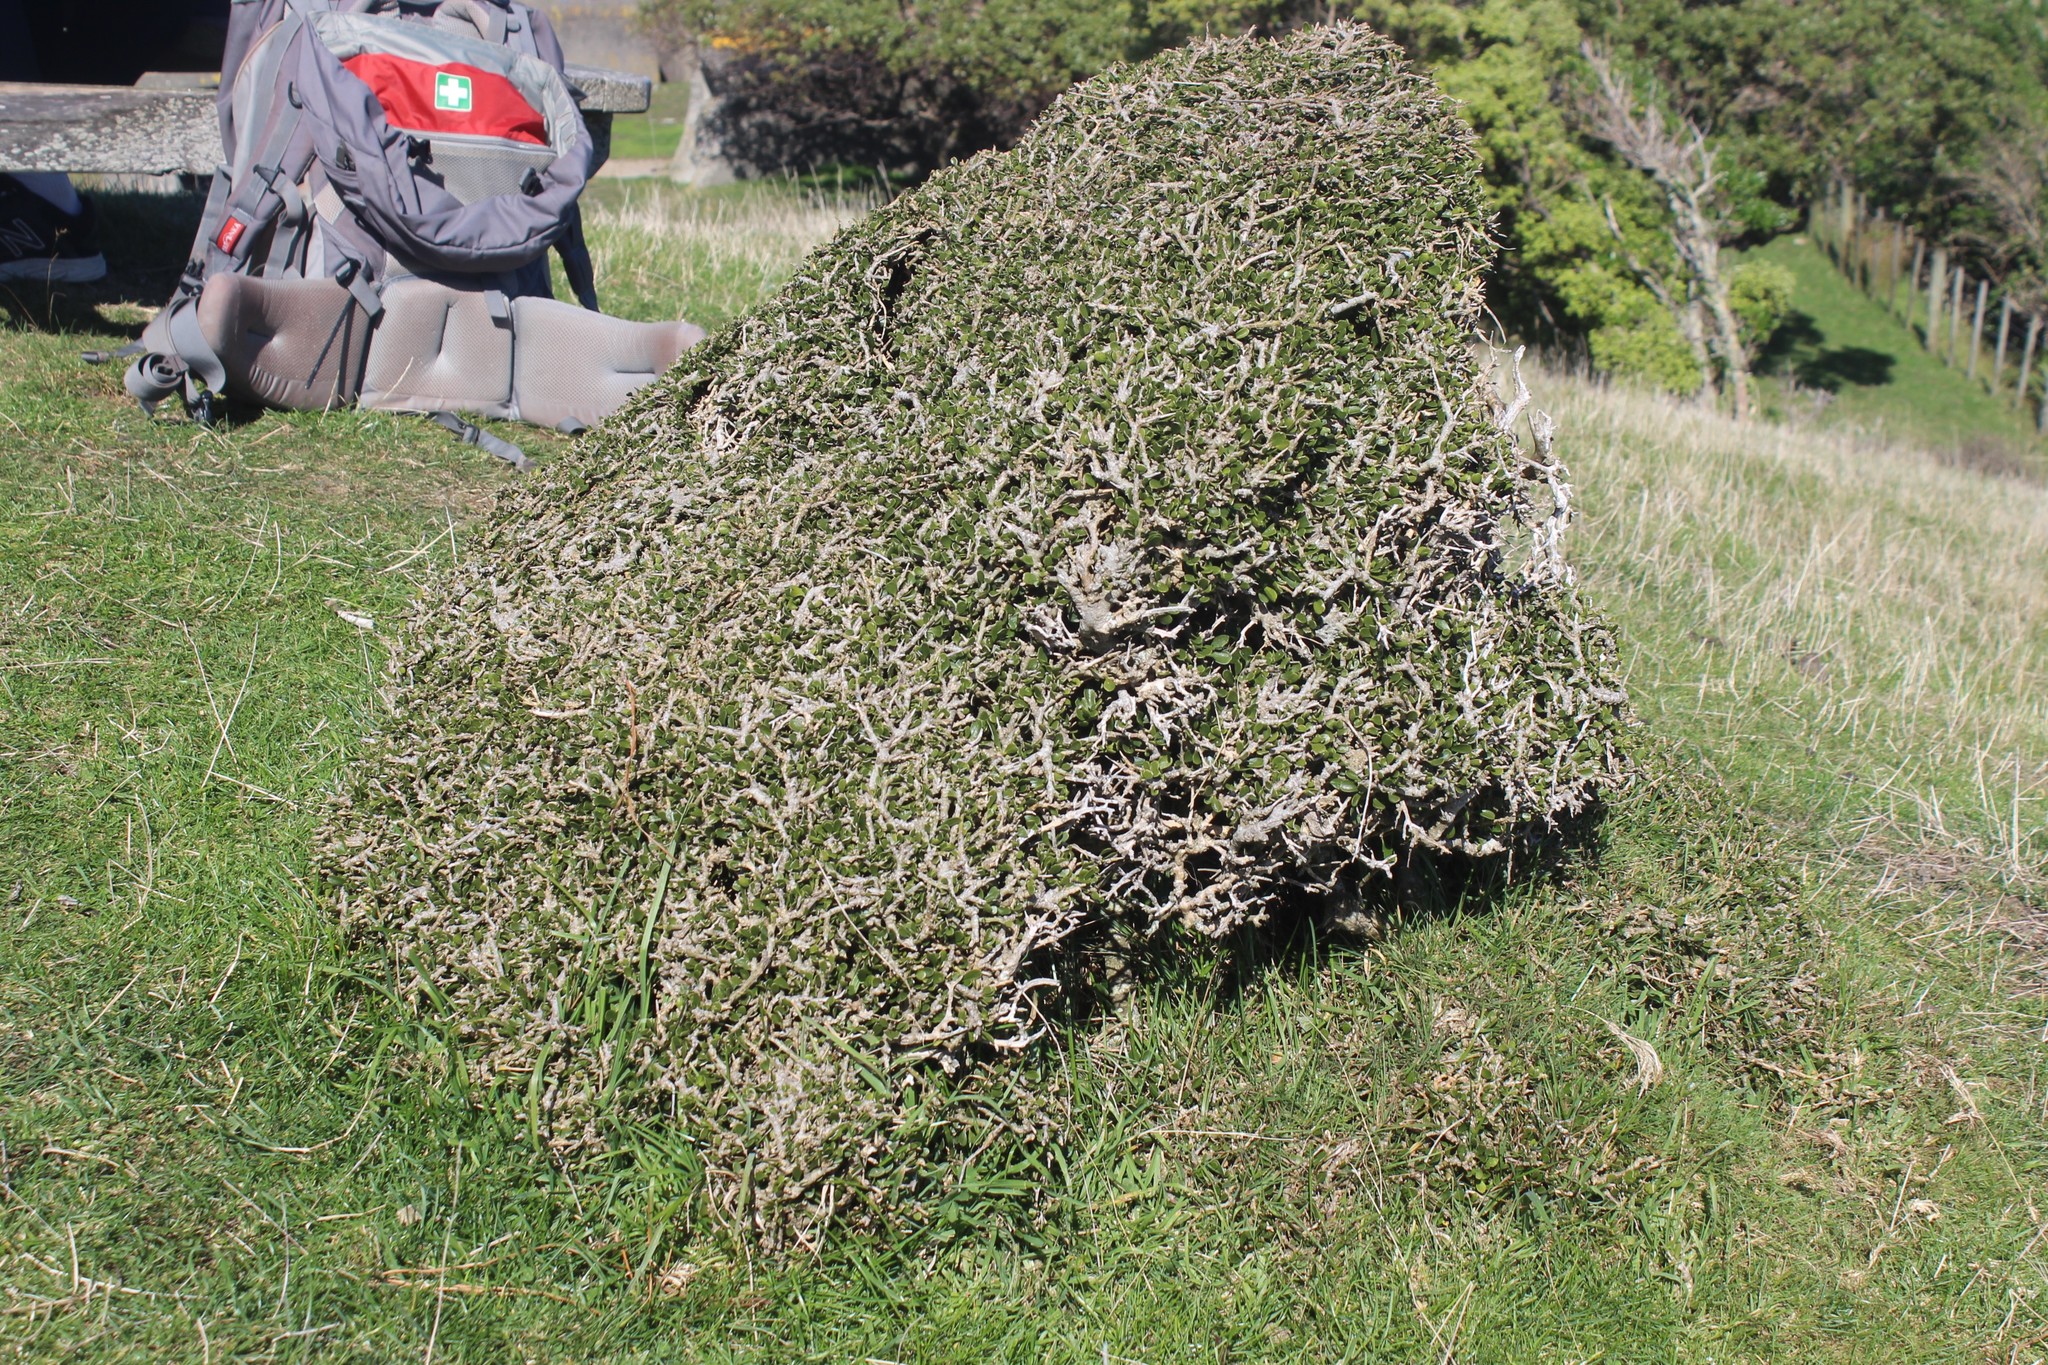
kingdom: Plantae
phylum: Tracheophyta
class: Magnoliopsida
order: Malpighiales
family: Violaceae
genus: Melicytus
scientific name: Melicytus crassifolius
